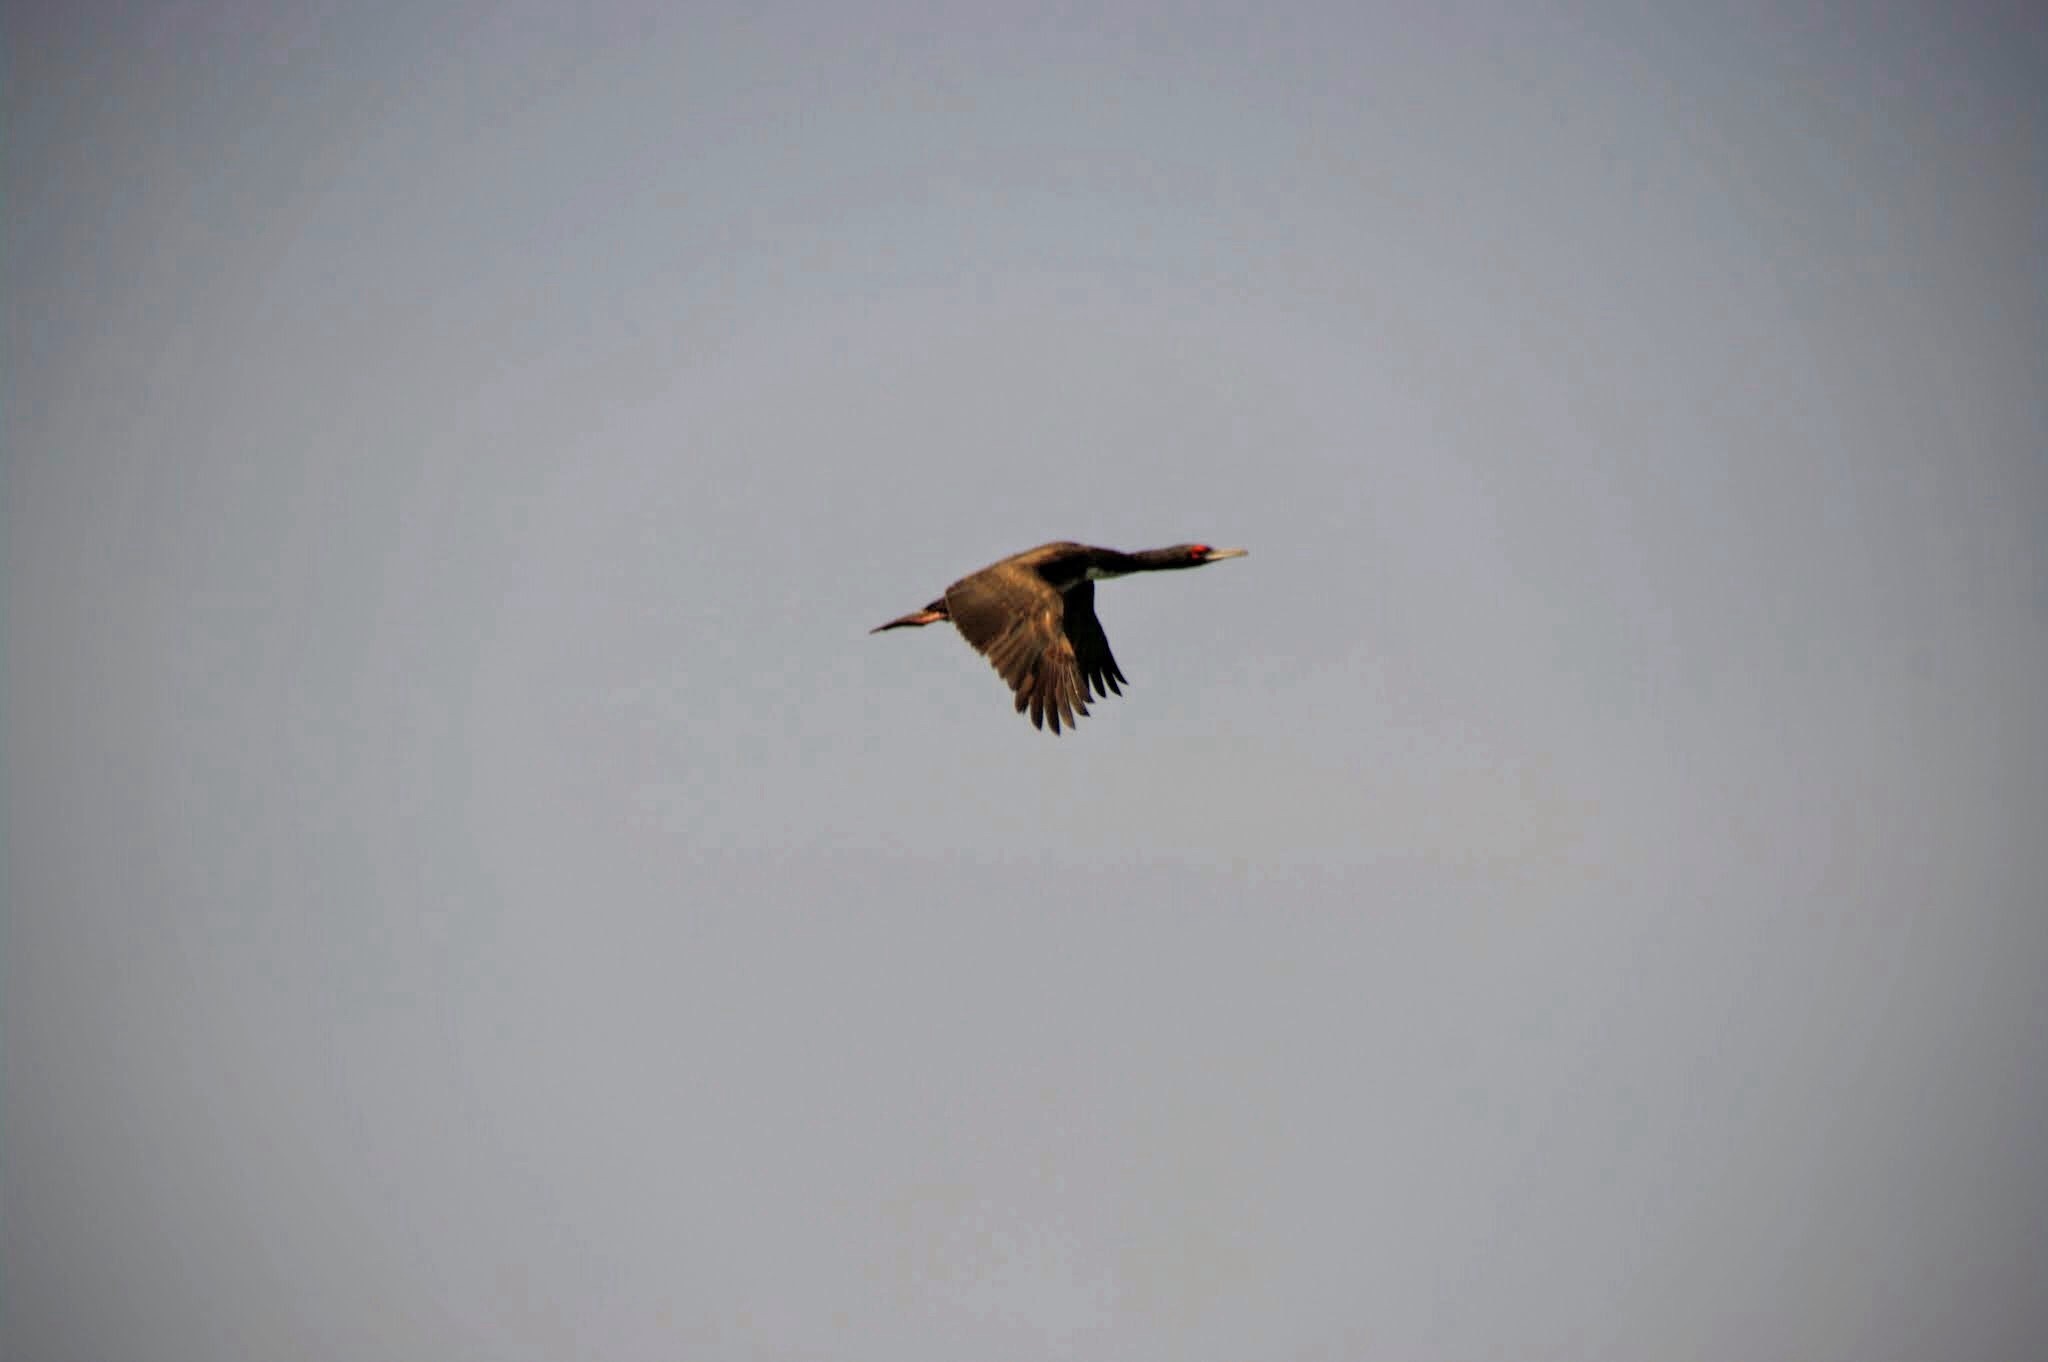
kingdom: Animalia
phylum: Chordata
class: Aves
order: Suliformes
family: Phalacrocoracidae
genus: Leucocarbo
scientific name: Leucocarbo bougainvillii
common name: Guanay cormorant
